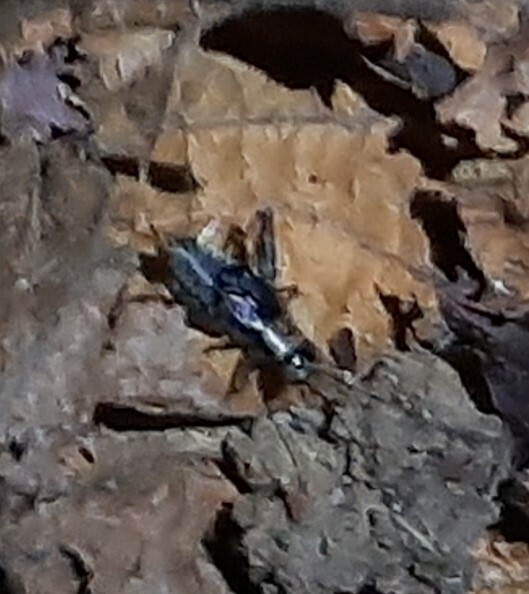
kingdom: Animalia
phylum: Arthropoda
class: Insecta
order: Orthoptera
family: Trigonidiidae
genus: Nemobius
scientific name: Nemobius sylvestris
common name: Wood-cricket
